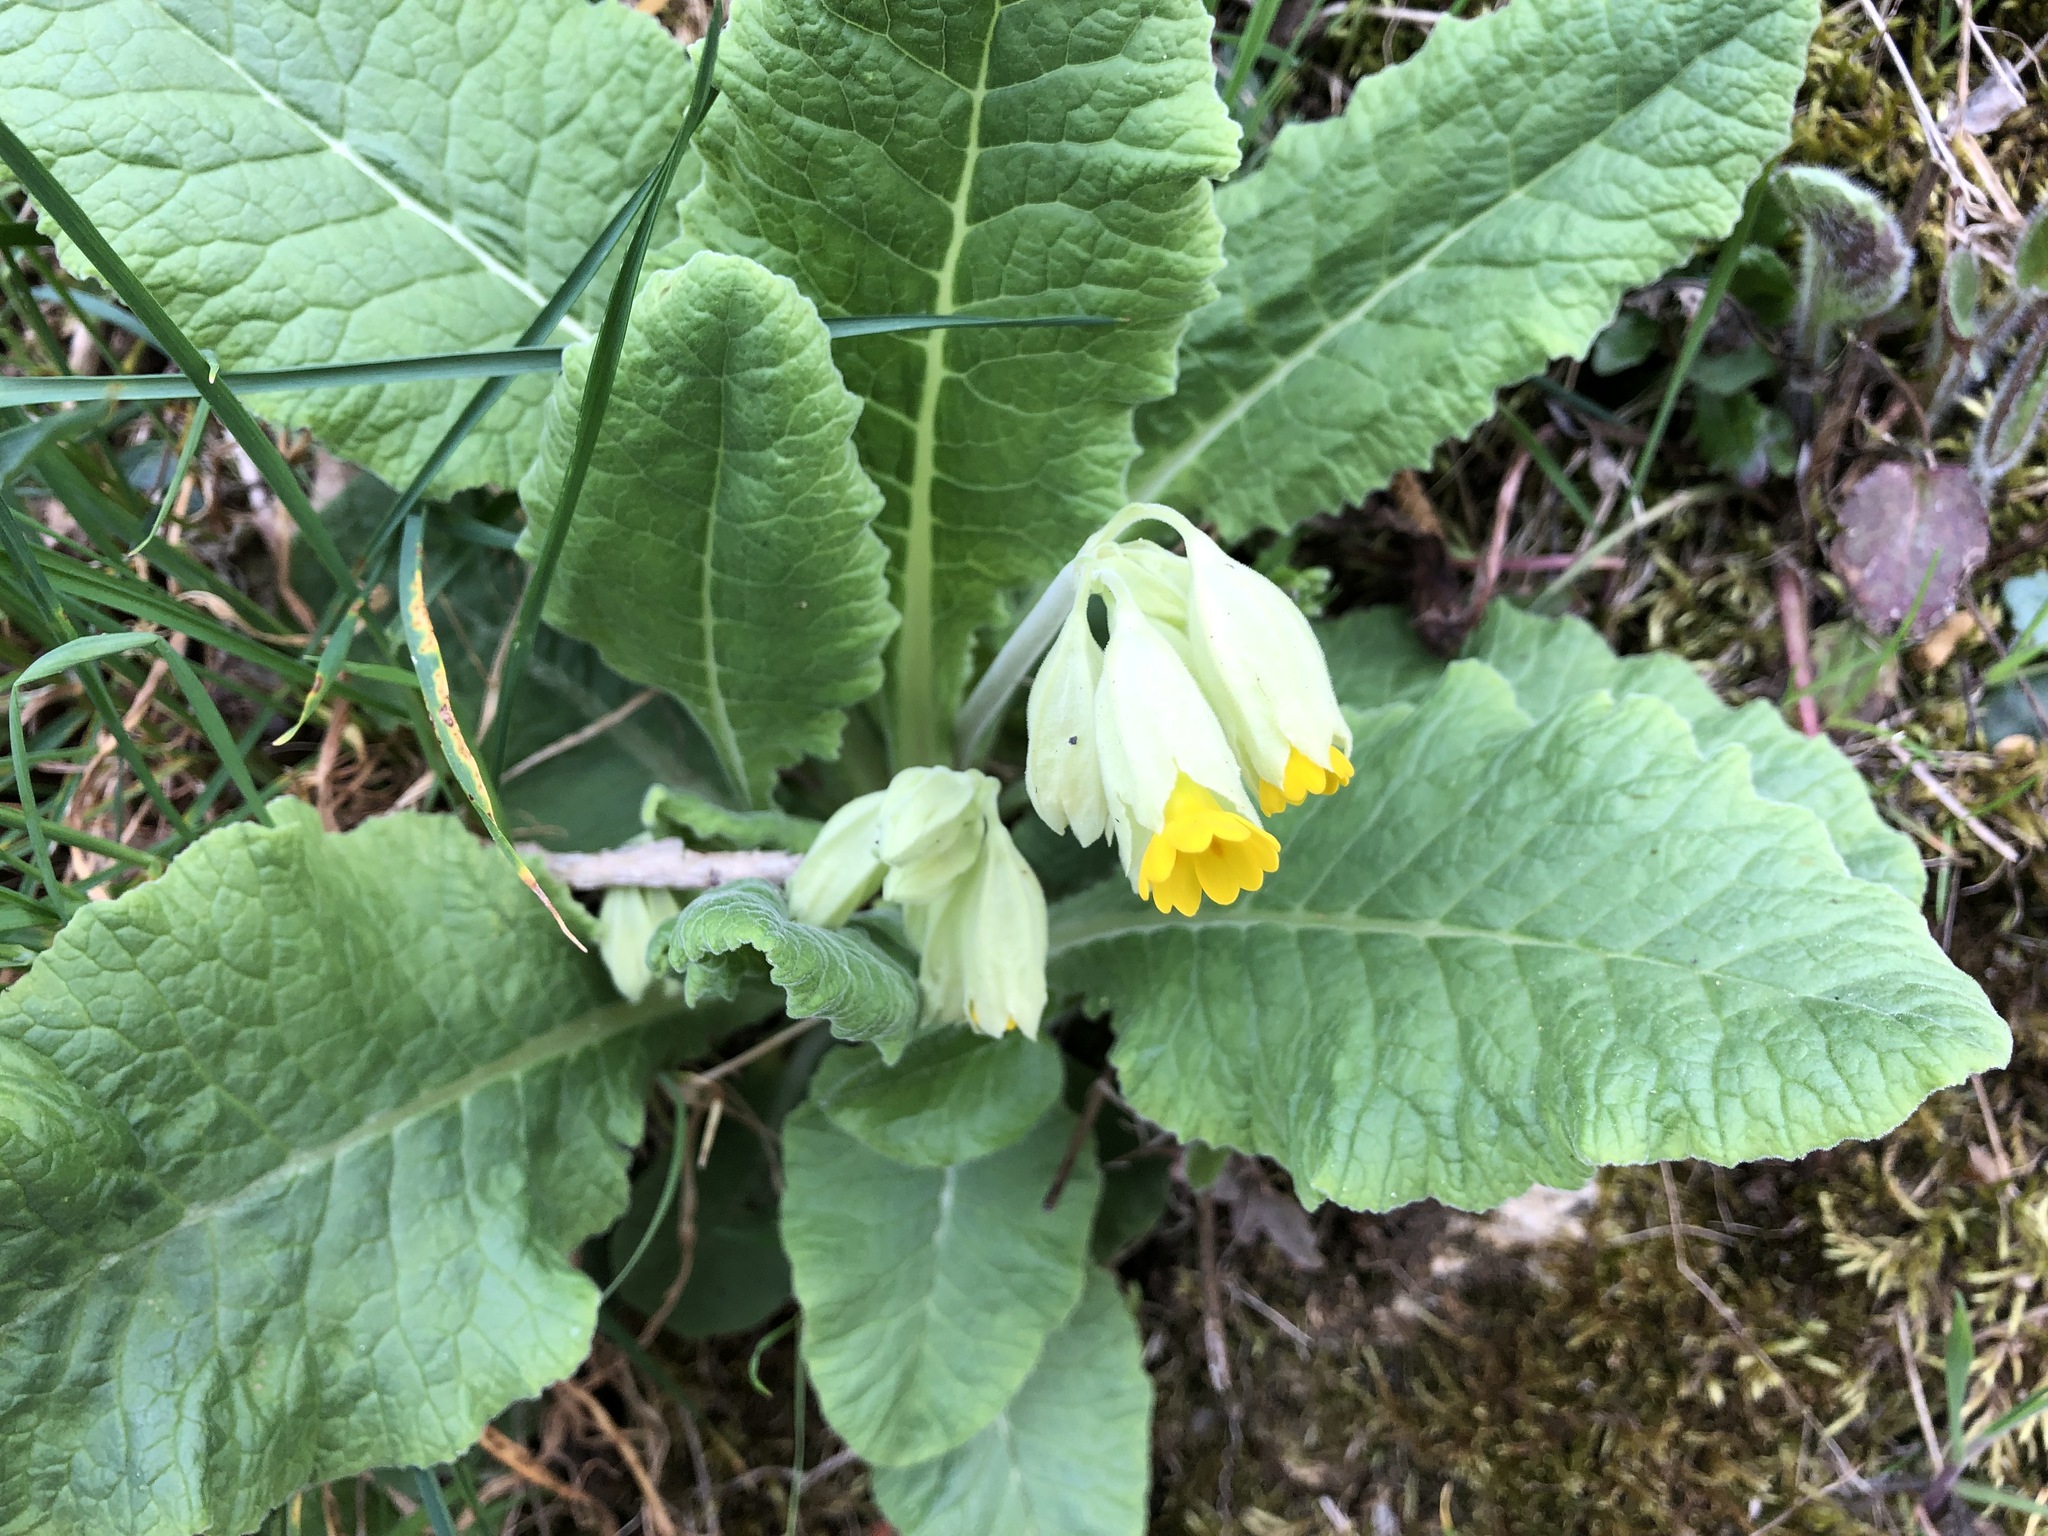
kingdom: Plantae
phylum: Tracheophyta
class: Magnoliopsida
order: Ericales
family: Primulaceae
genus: Primula
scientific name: Primula veris
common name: Cowslip
